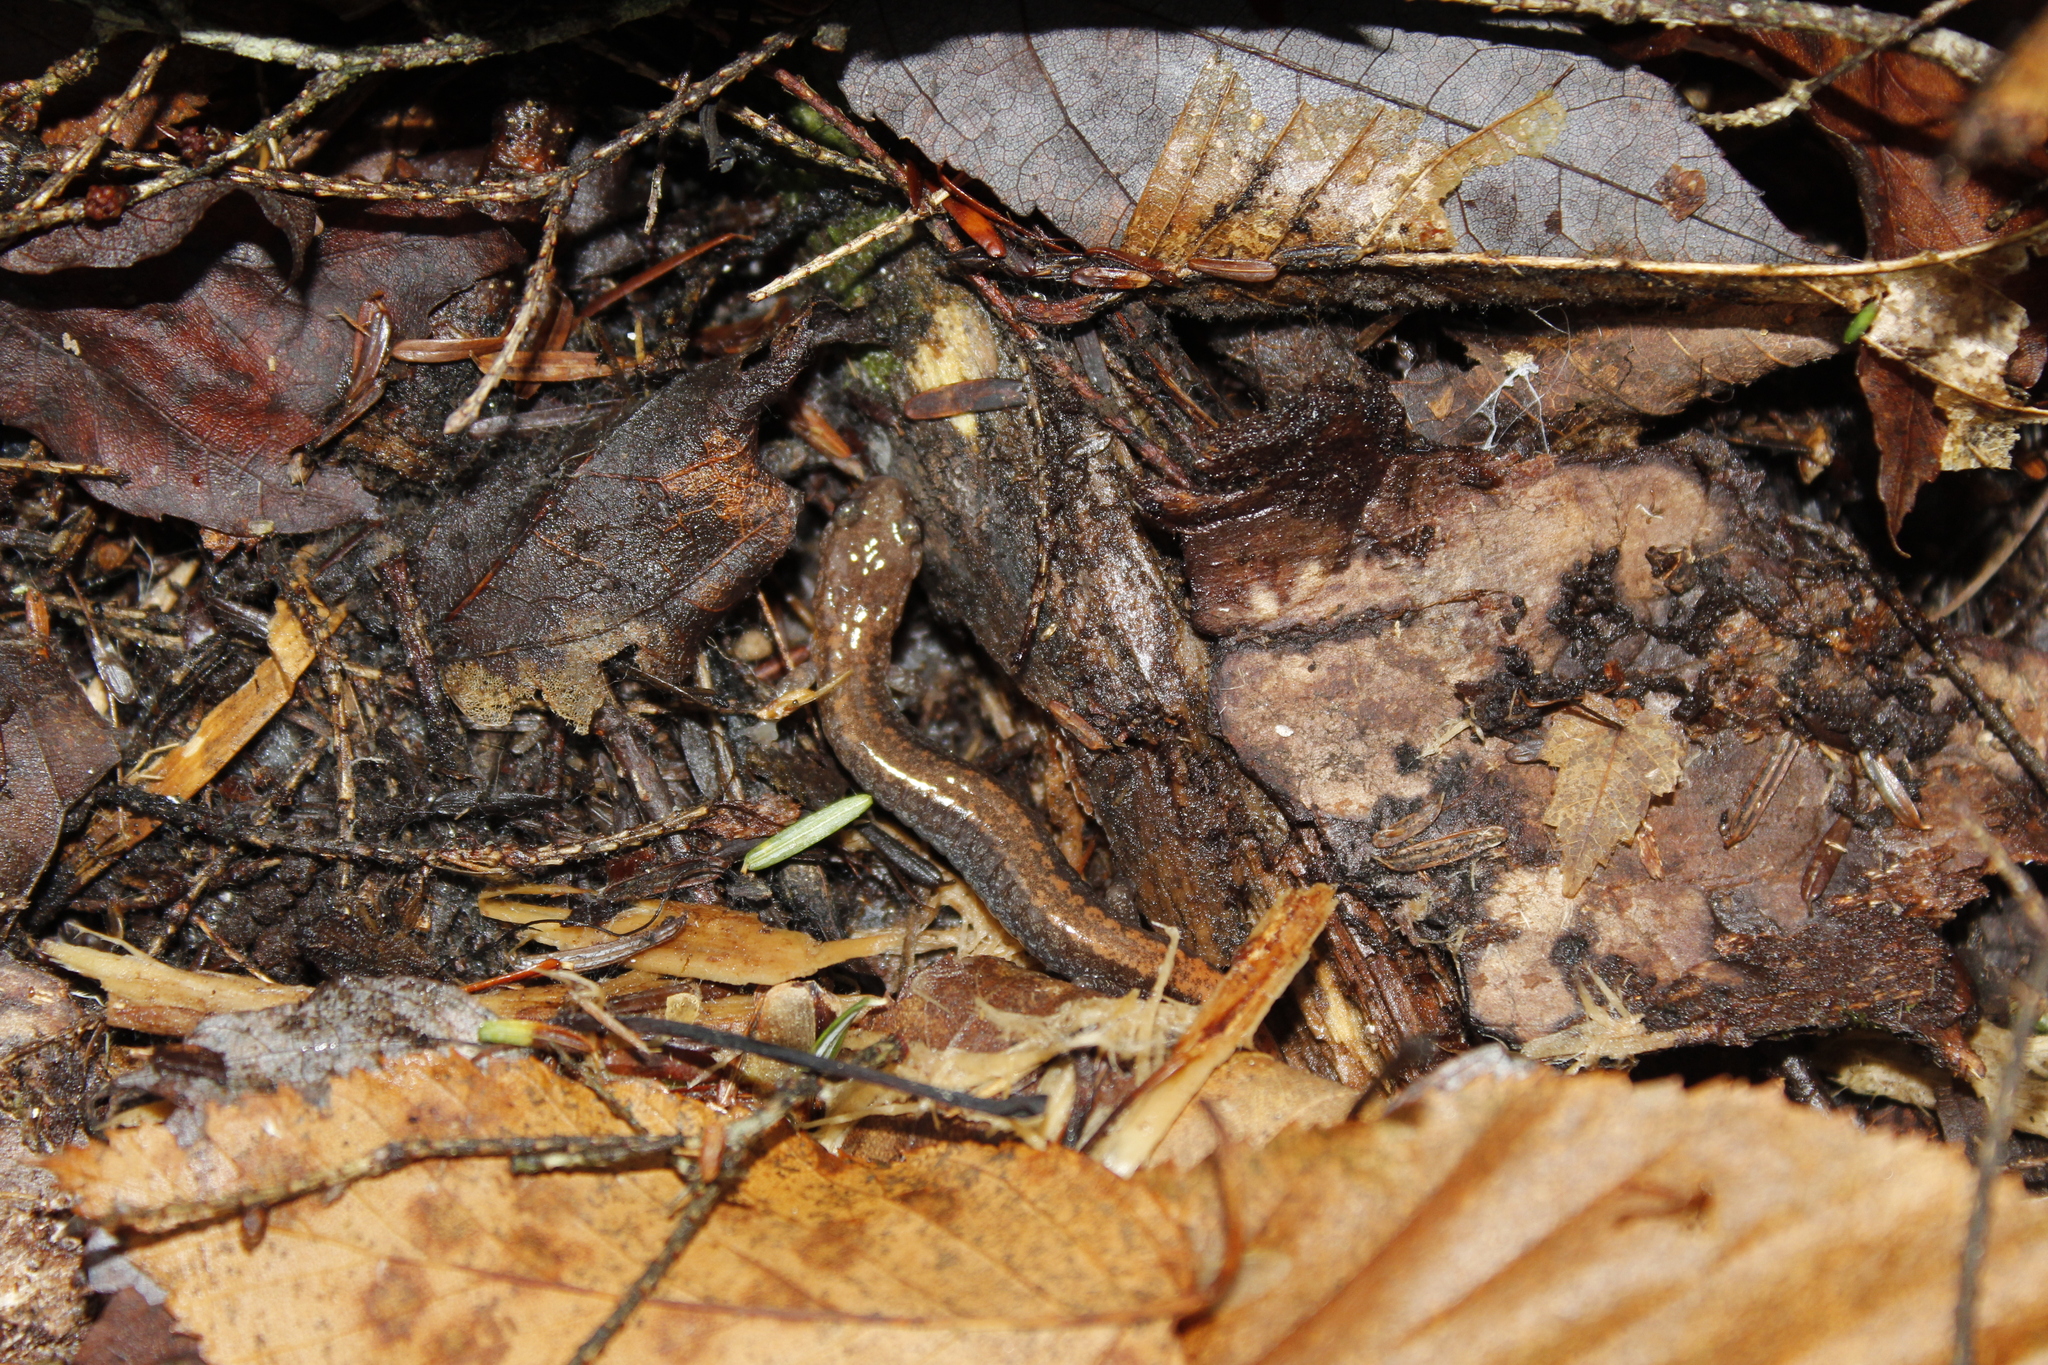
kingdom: Animalia
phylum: Chordata
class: Amphibia
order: Caudata
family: Plethodontidae
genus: Plethodon
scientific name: Plethodon cinereus
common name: Redback salamander
